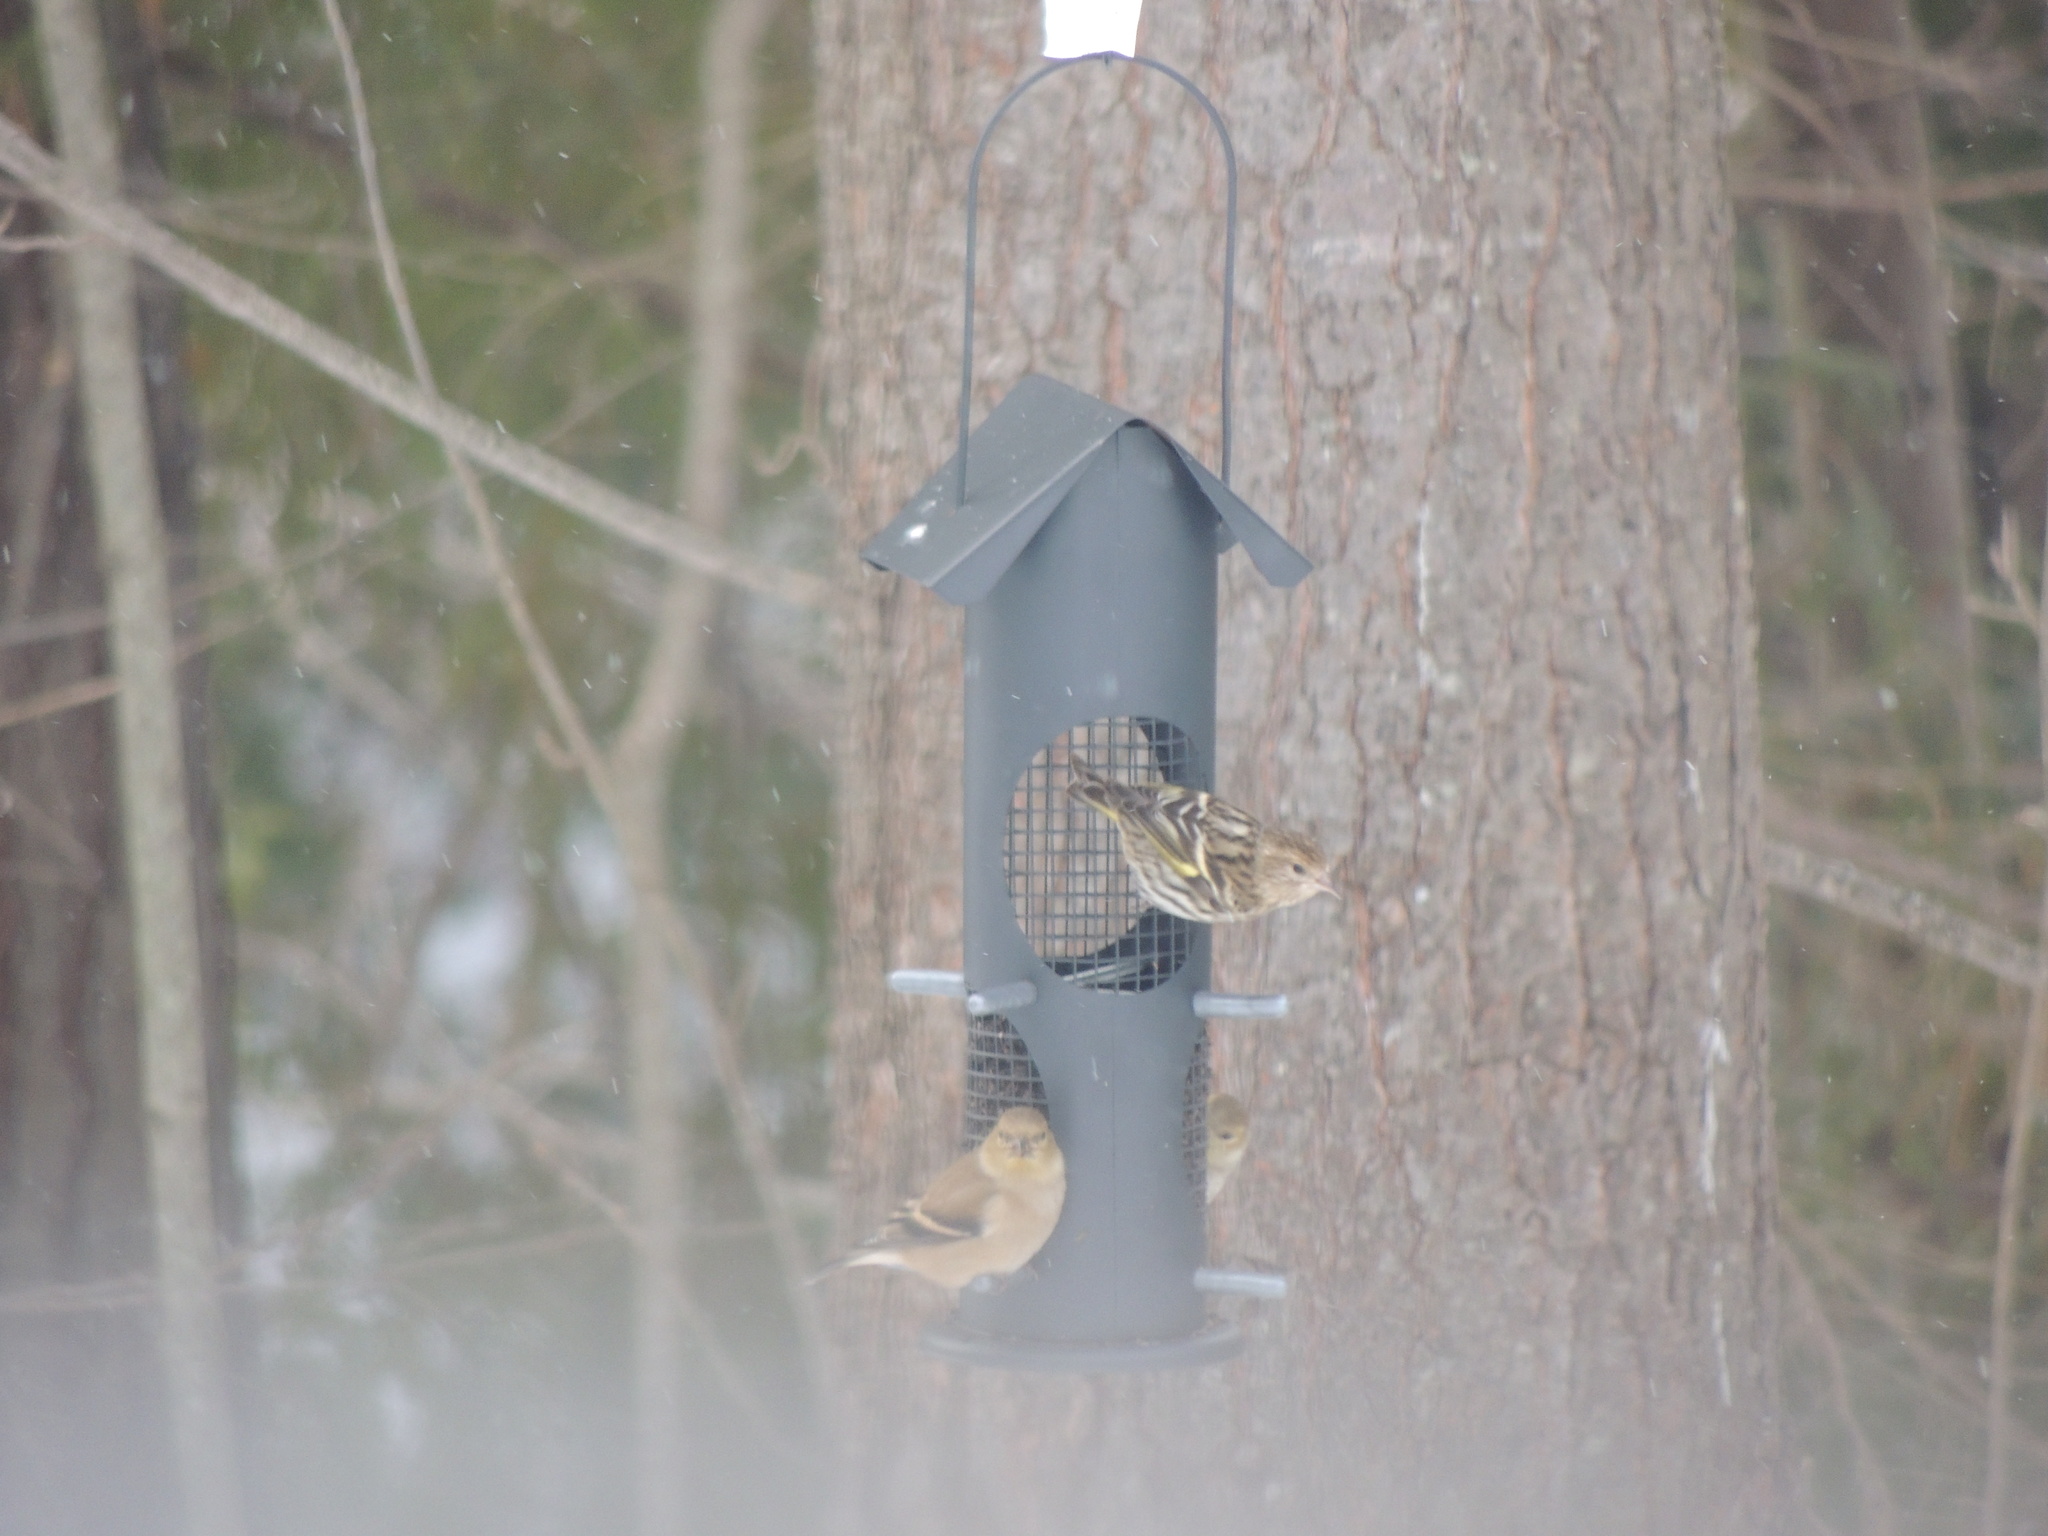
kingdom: Animalia
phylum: Chordata
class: Aves
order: Passeriformes
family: Fringillidae
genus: Spinus
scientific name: Spinus pinus
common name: Pine siskin
